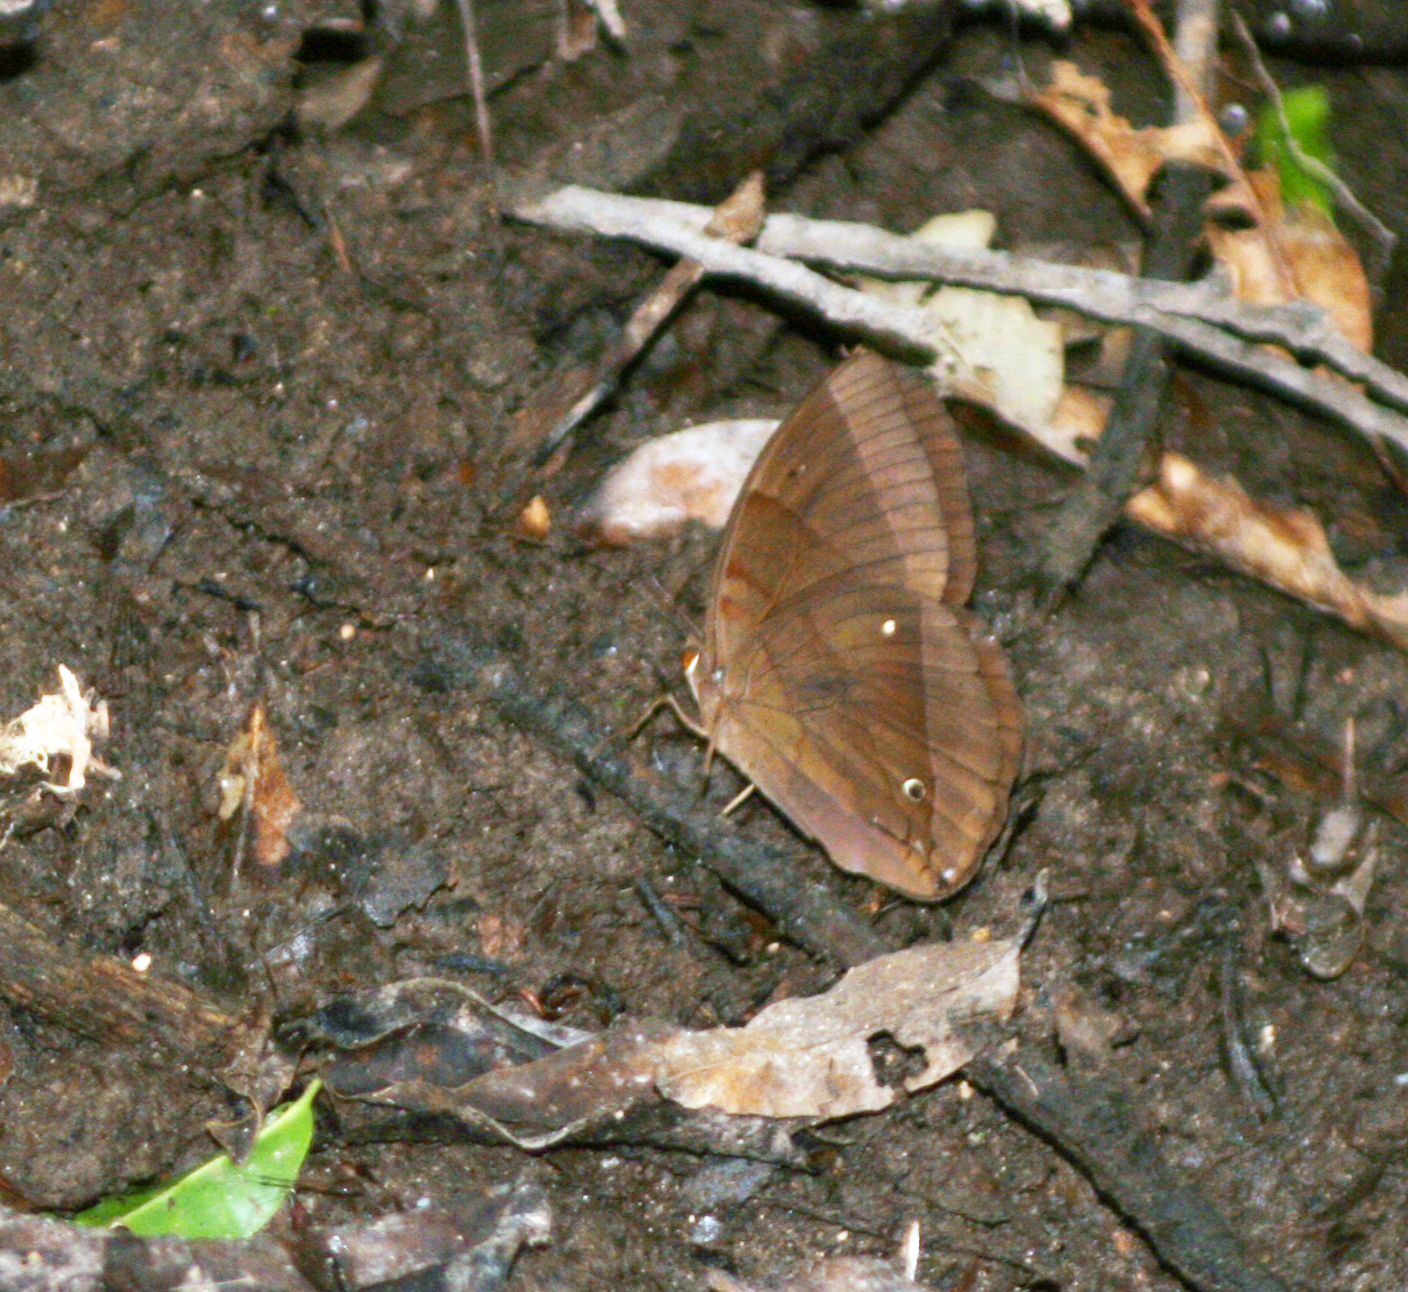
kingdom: Animalia
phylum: Arthropoda
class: Insecta
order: Lepidoptera
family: Nymphalidae
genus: Thaumantis
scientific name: Thaumantis diores
